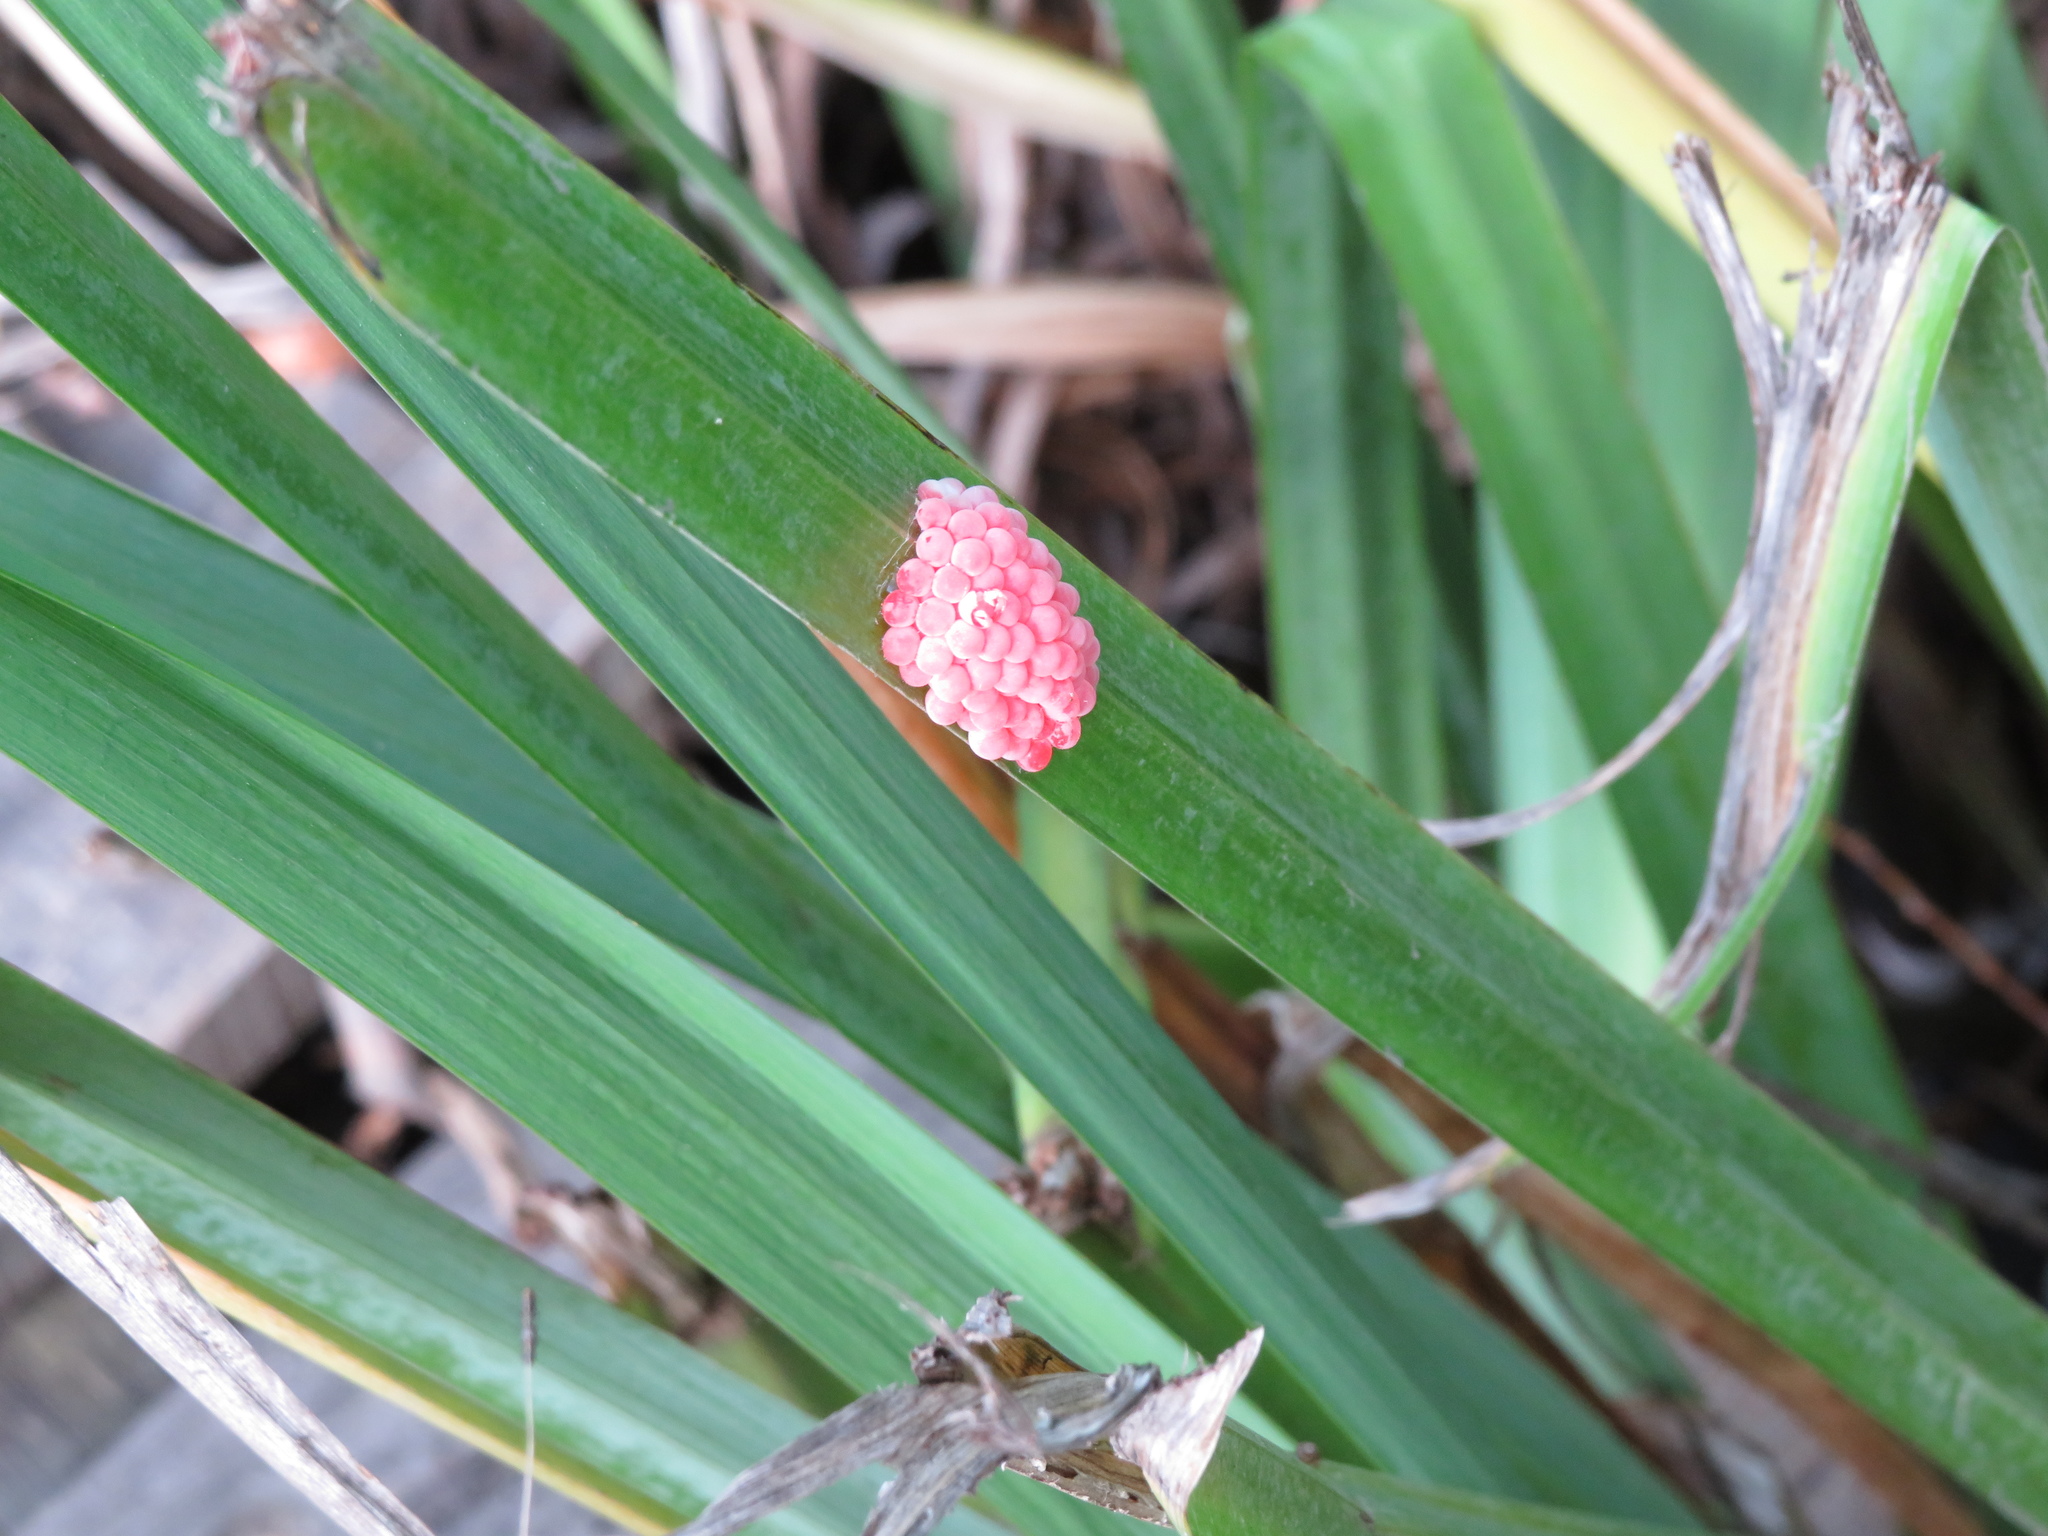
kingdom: Animalia
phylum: Mollusca
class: Gastropoda
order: Architaenioglossa
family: Ampullariidae
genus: Pomacea
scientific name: Pomacea canaliculata
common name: Channeled applesnail
